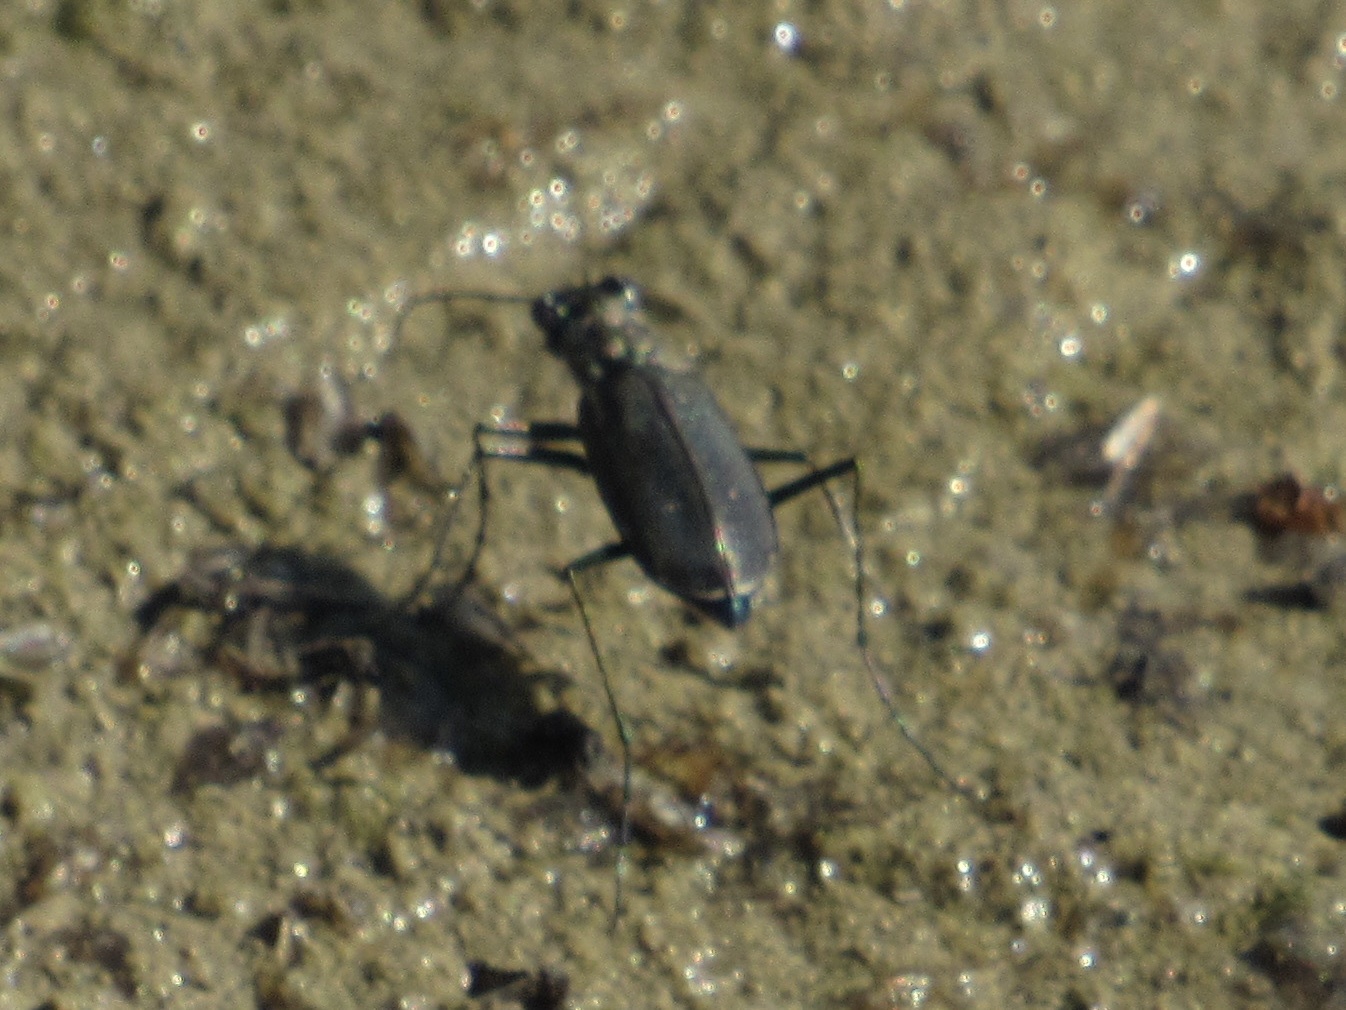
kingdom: Animalia
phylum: Arthropoda
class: Insecta
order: Coleoptera
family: Carabidae
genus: Cicindela
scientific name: Cicindela punctulata
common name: Punctured tiger beetle
